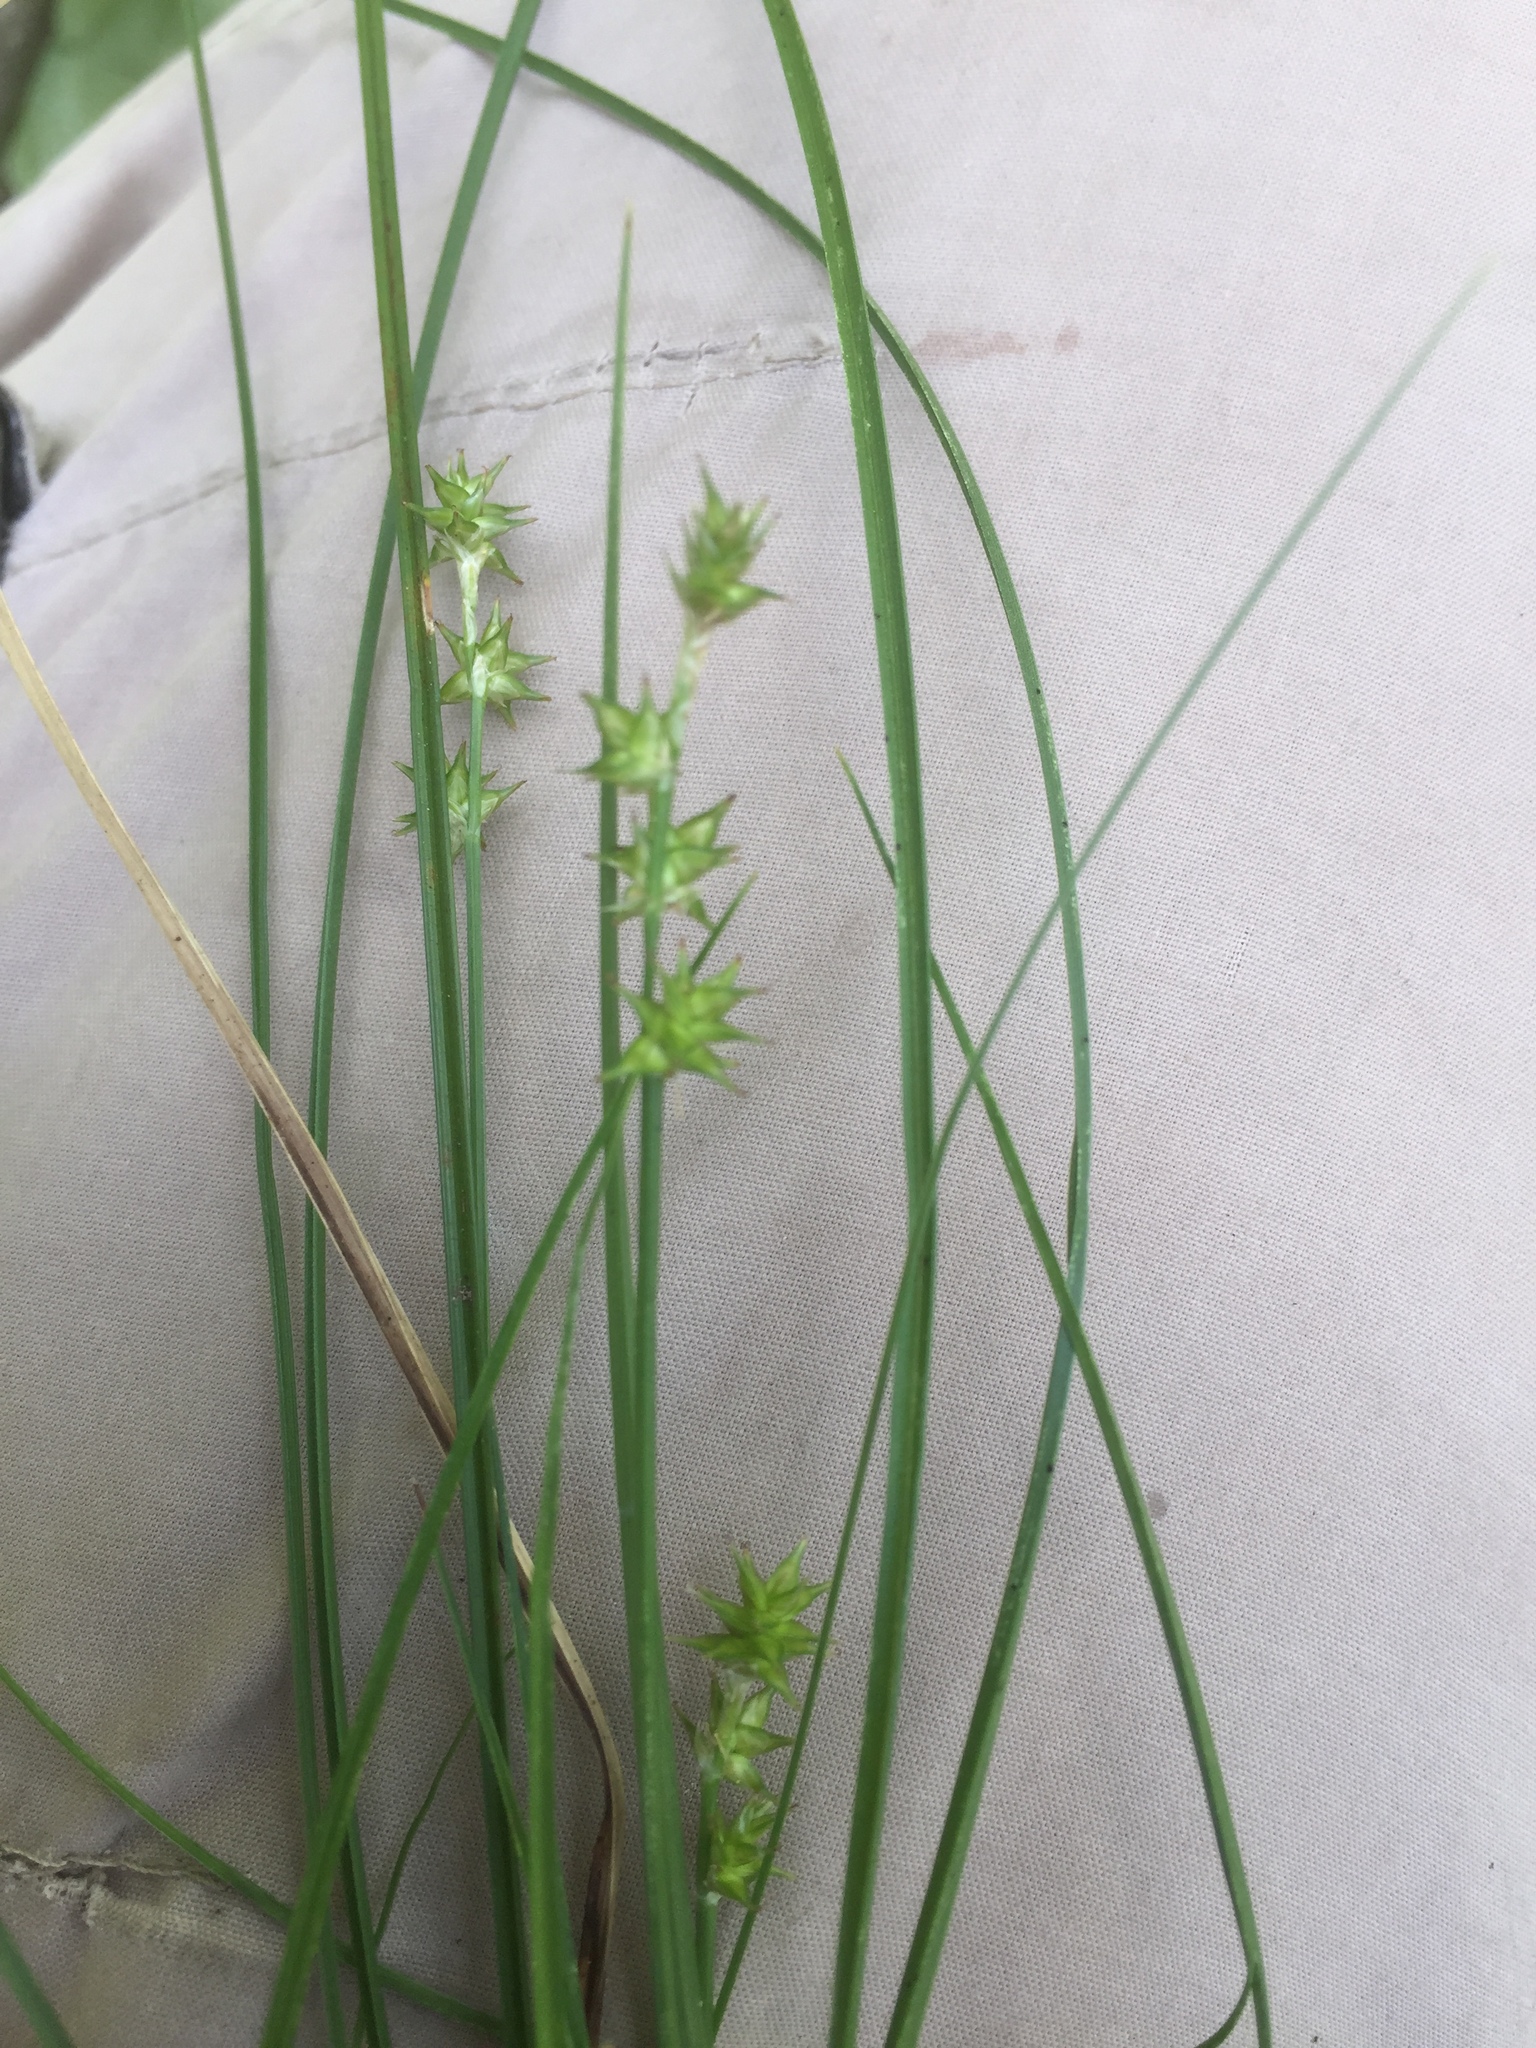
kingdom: Plantae
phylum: Tracheophyta
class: Liliopsida
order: Poales
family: Cyperaceae
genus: Carex
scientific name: Carex echinata
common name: Star sedge
